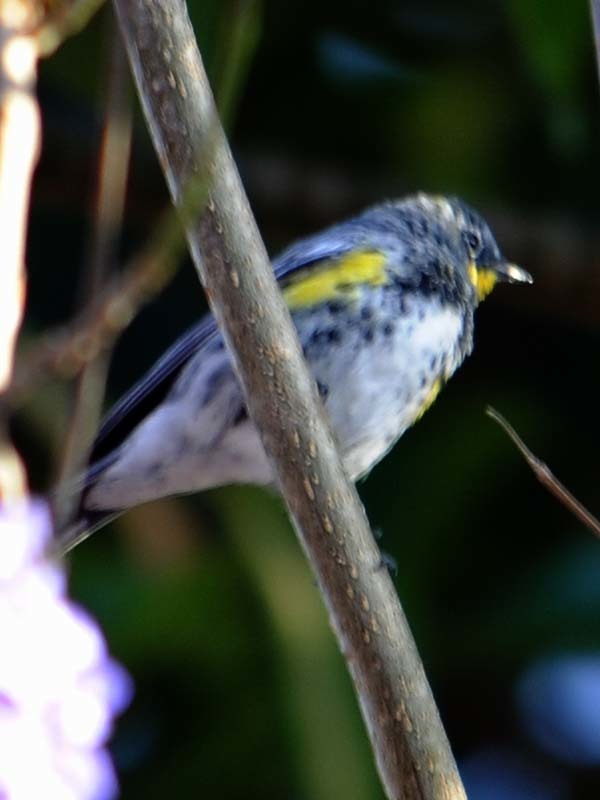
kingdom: Animalia
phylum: Chordata
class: Aves
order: Passeriformes
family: Parulidae
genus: Setophaga
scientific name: Setophaga auduboni
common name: Audubon's warbler
